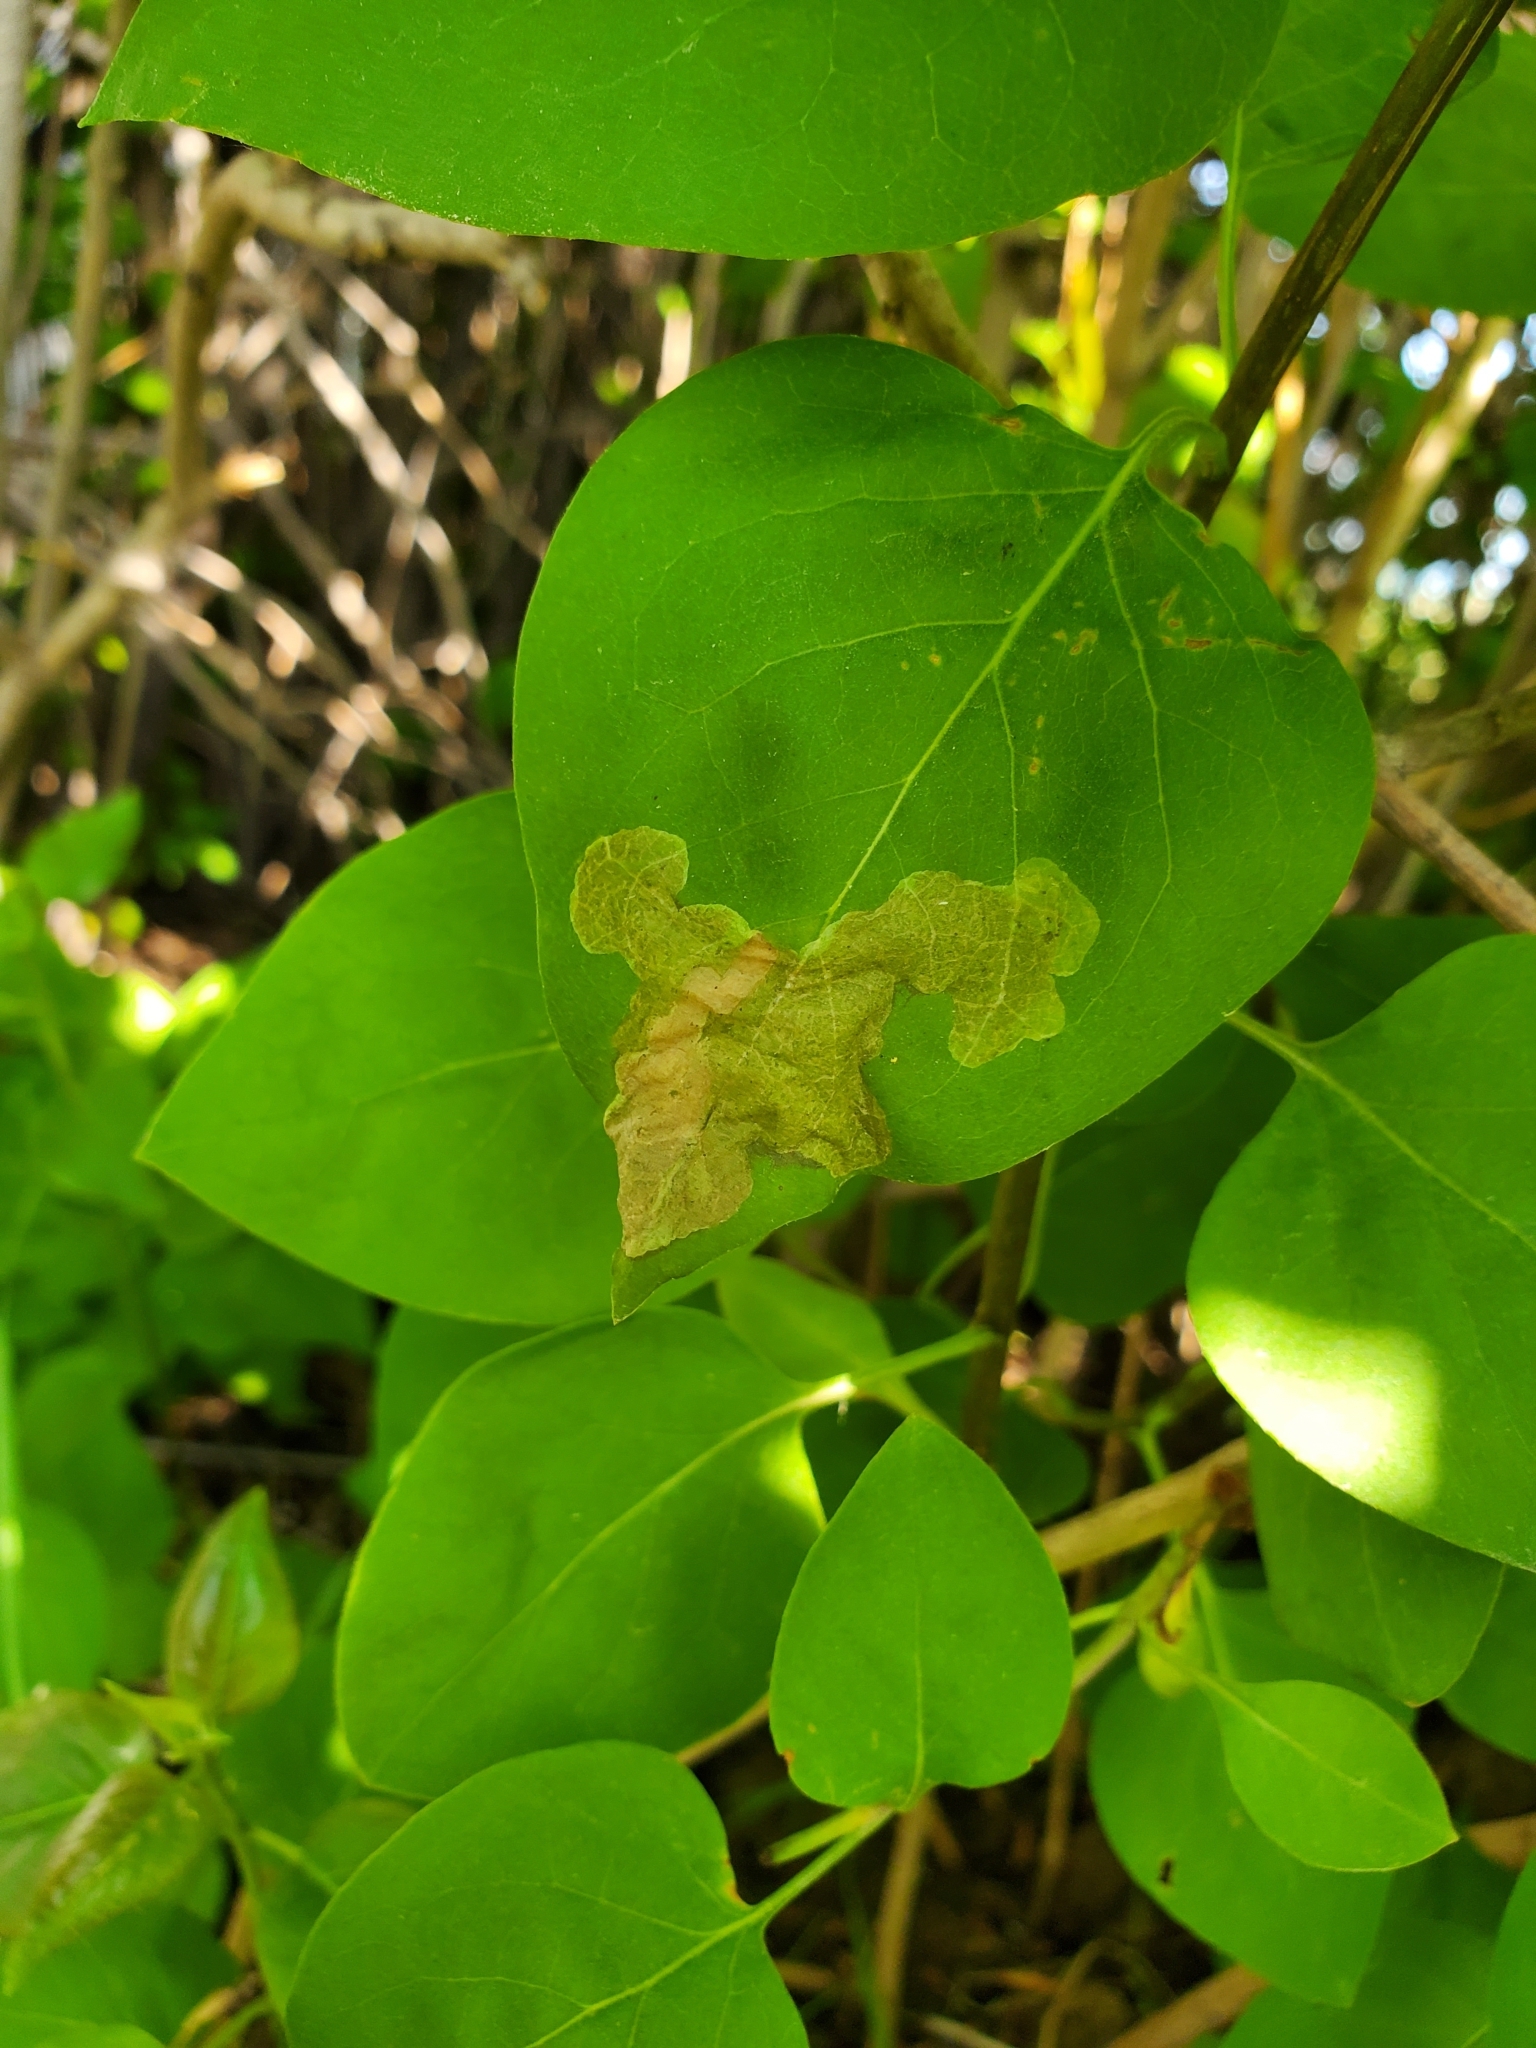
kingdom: Animalia
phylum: Arthropoda
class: Insecta
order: Lepidoptera
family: Gracillariidae
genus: Gracillaria
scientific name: Gracillaria syringella
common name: Common slender
